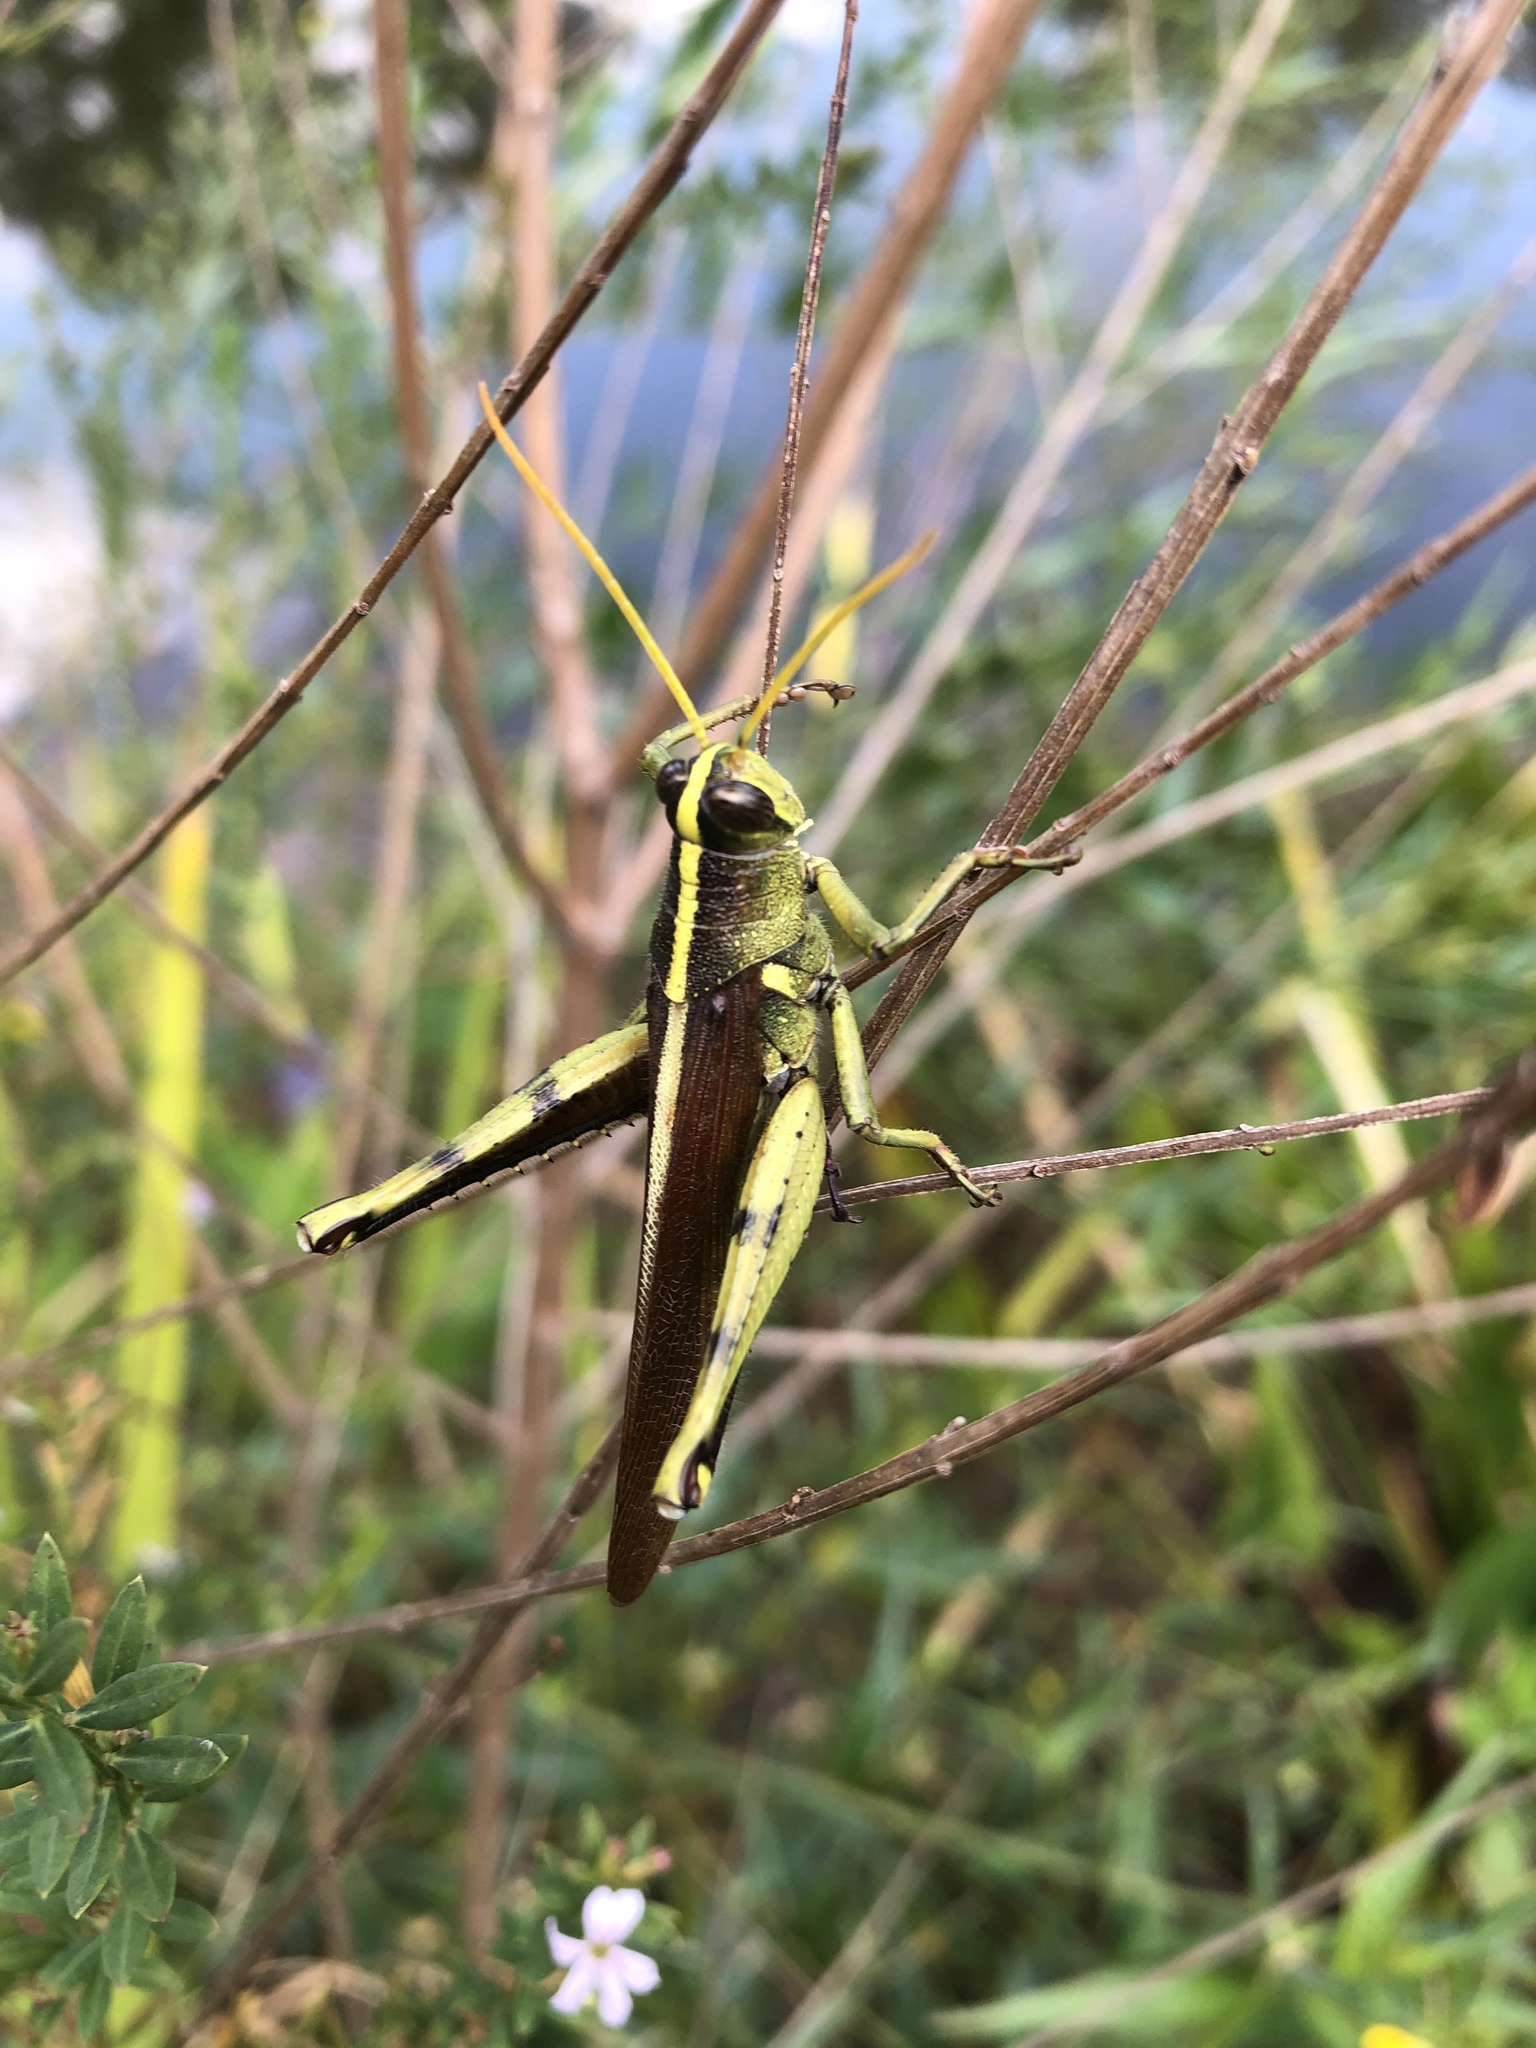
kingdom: Animalia
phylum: Arthropoda
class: Insecta
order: Orthoptera
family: Acrididae
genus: Schistocerca
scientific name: Schistocerca obscura
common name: Obscure bird grasshopper
